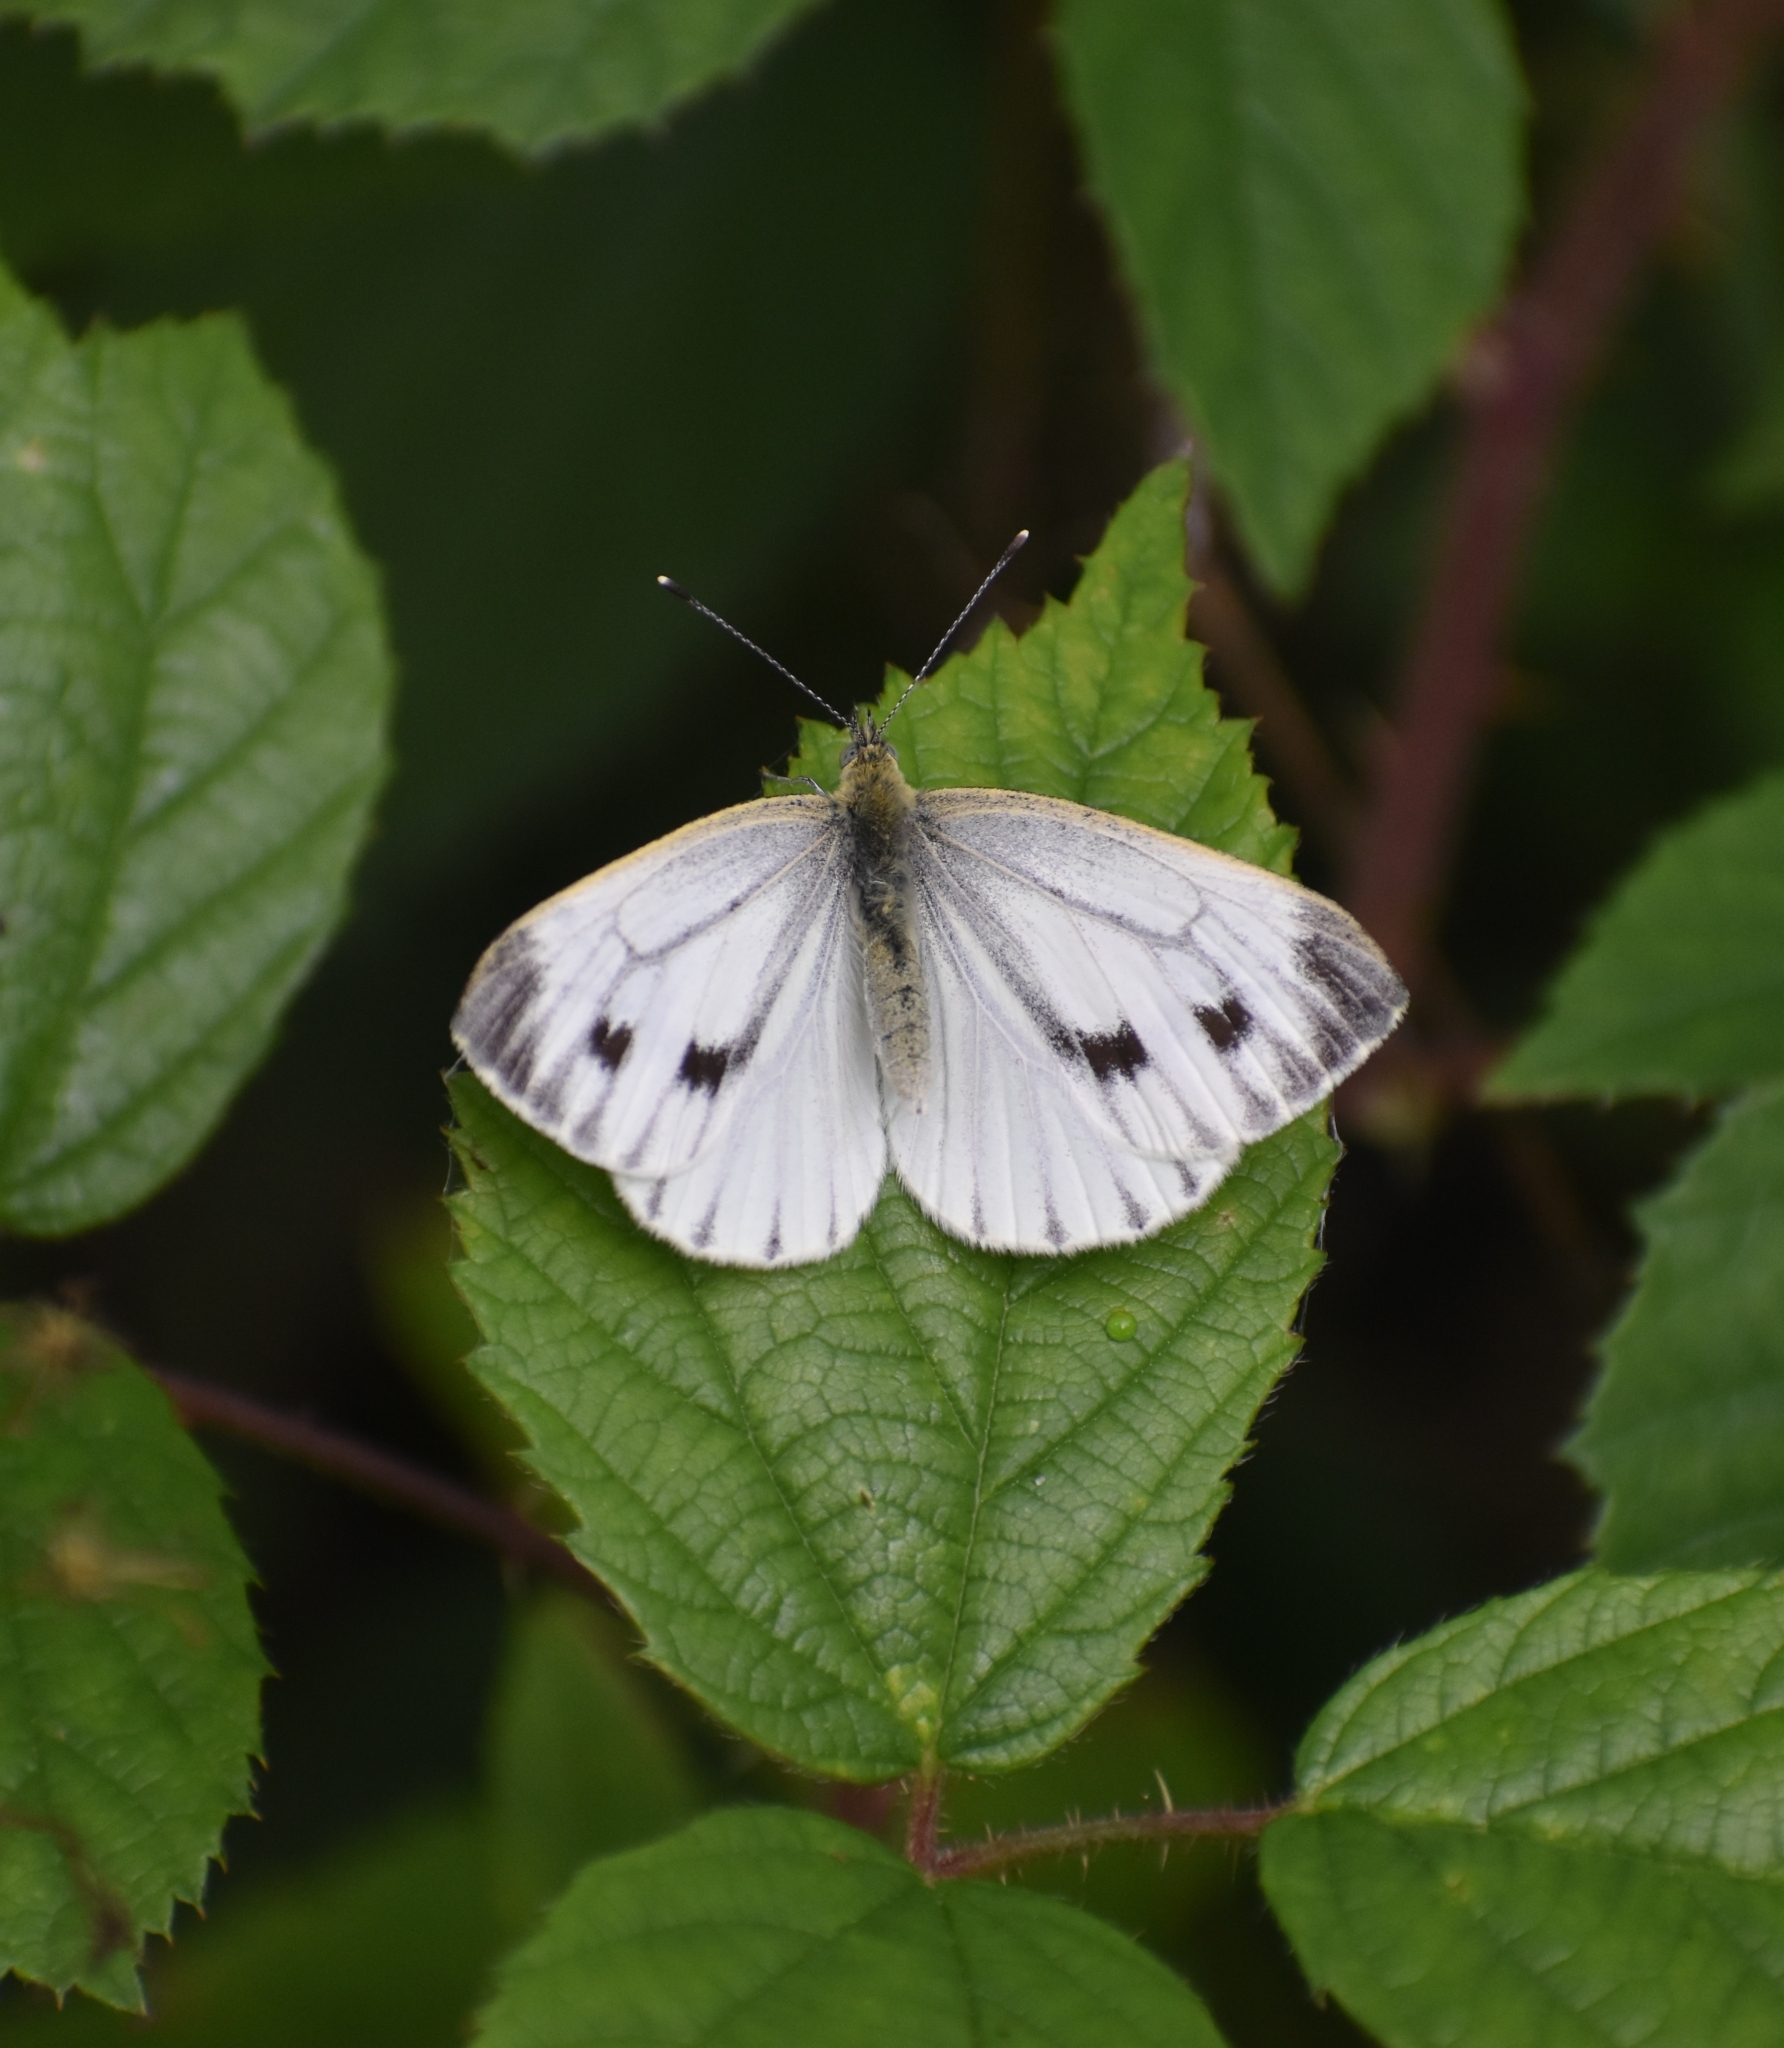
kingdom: Animalia
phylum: Arthropoda
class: Insecta
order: Lepidoptera
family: Pieridae
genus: Pieris
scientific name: Pieris napi
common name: Green-veined white
